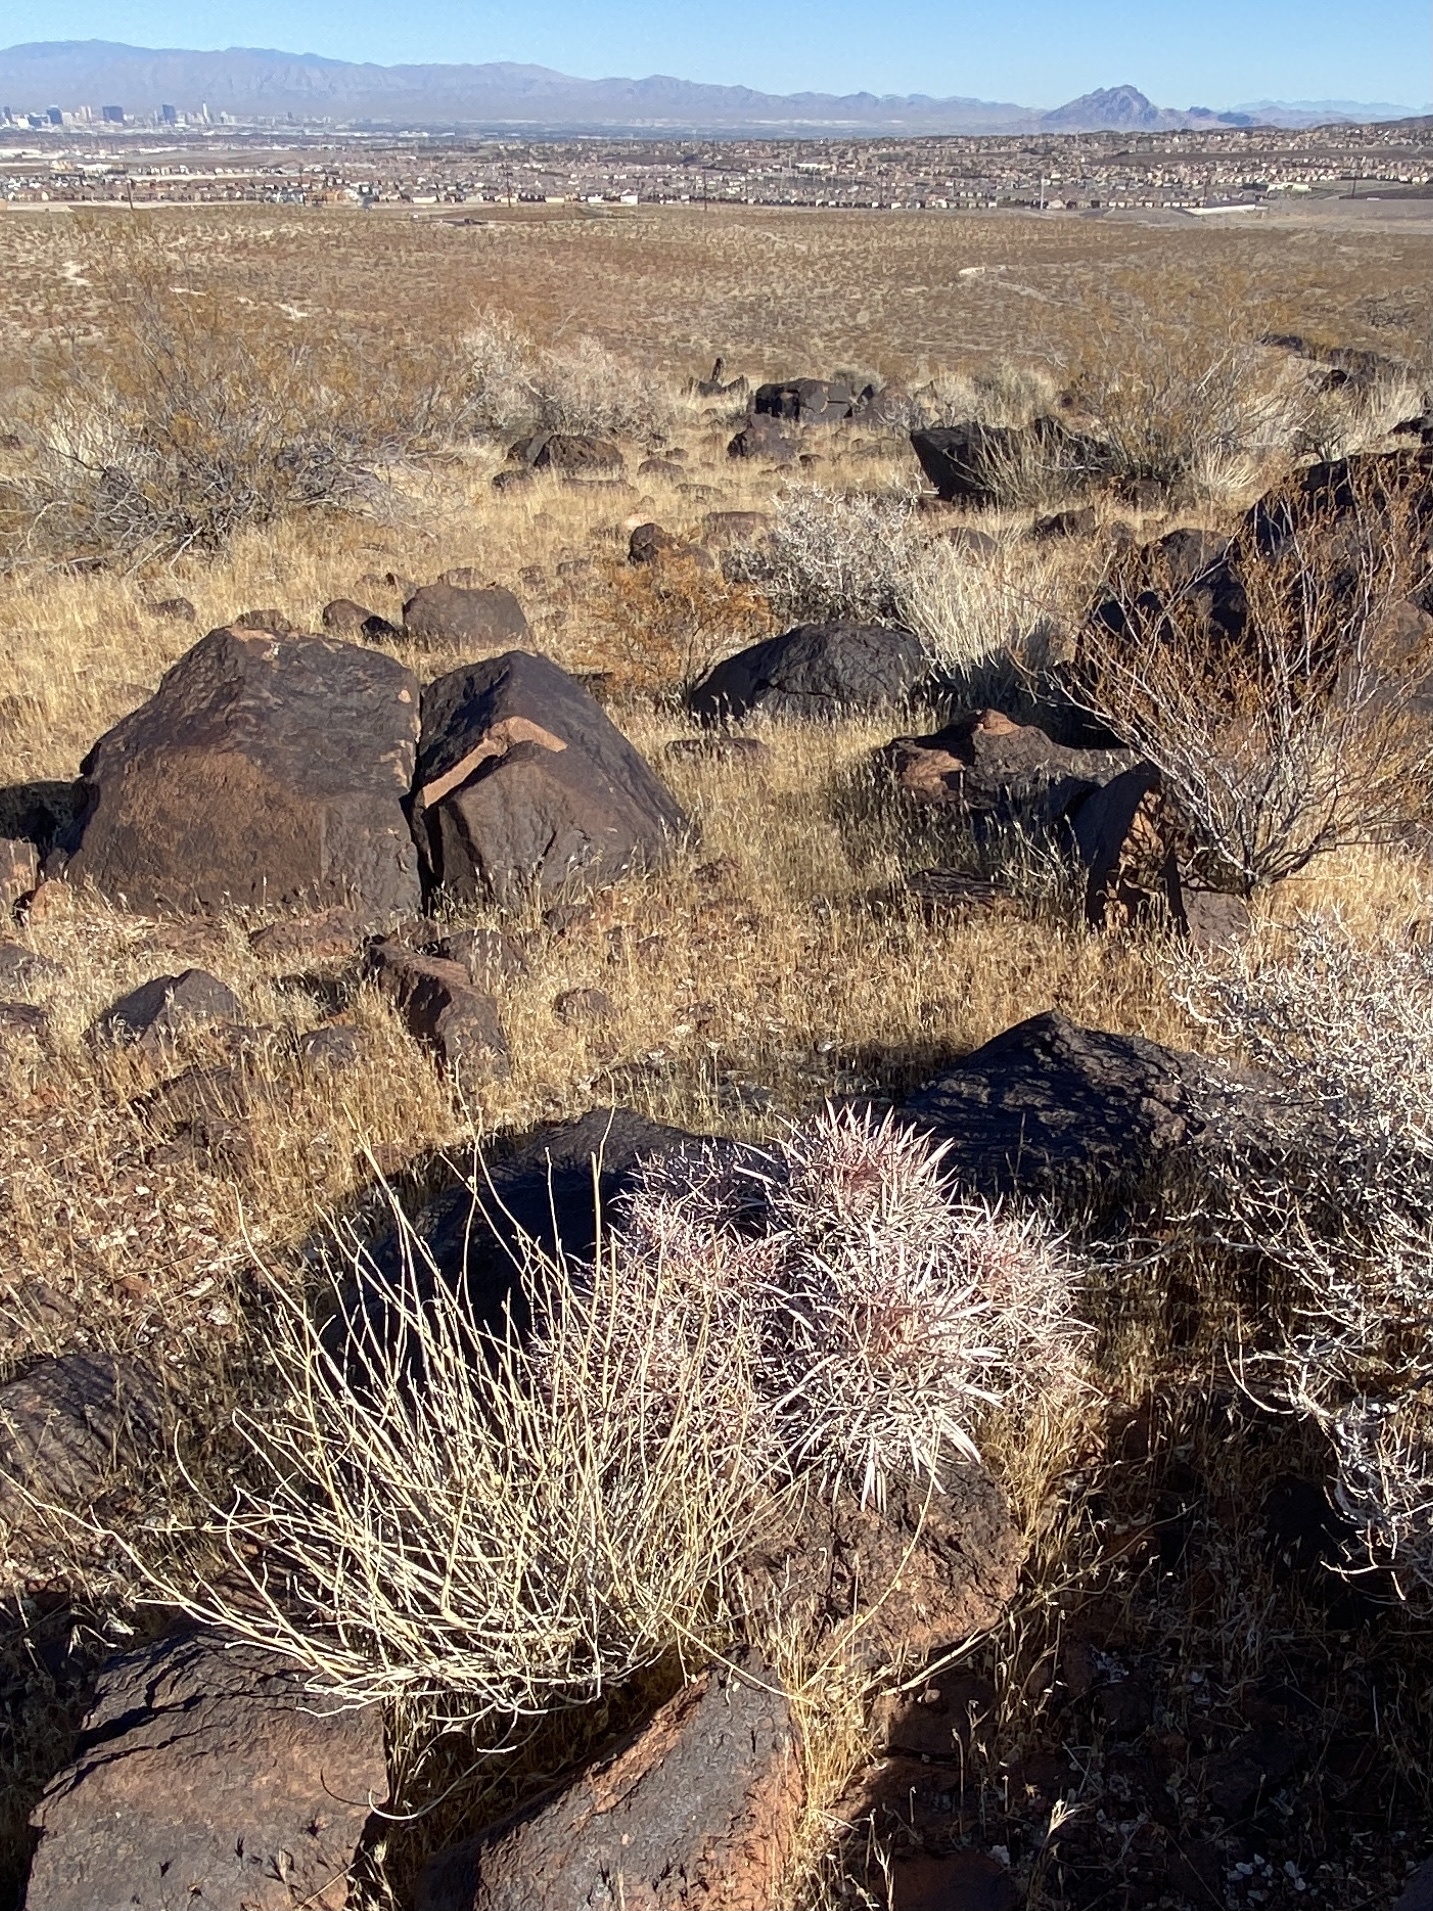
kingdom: Plantae
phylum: Tracheophyta
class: Magnoliopsida
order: Caryophyllales
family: Cactaceae
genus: Echinocactus
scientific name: Echinocactus polycephalus
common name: Cottontop cactus
